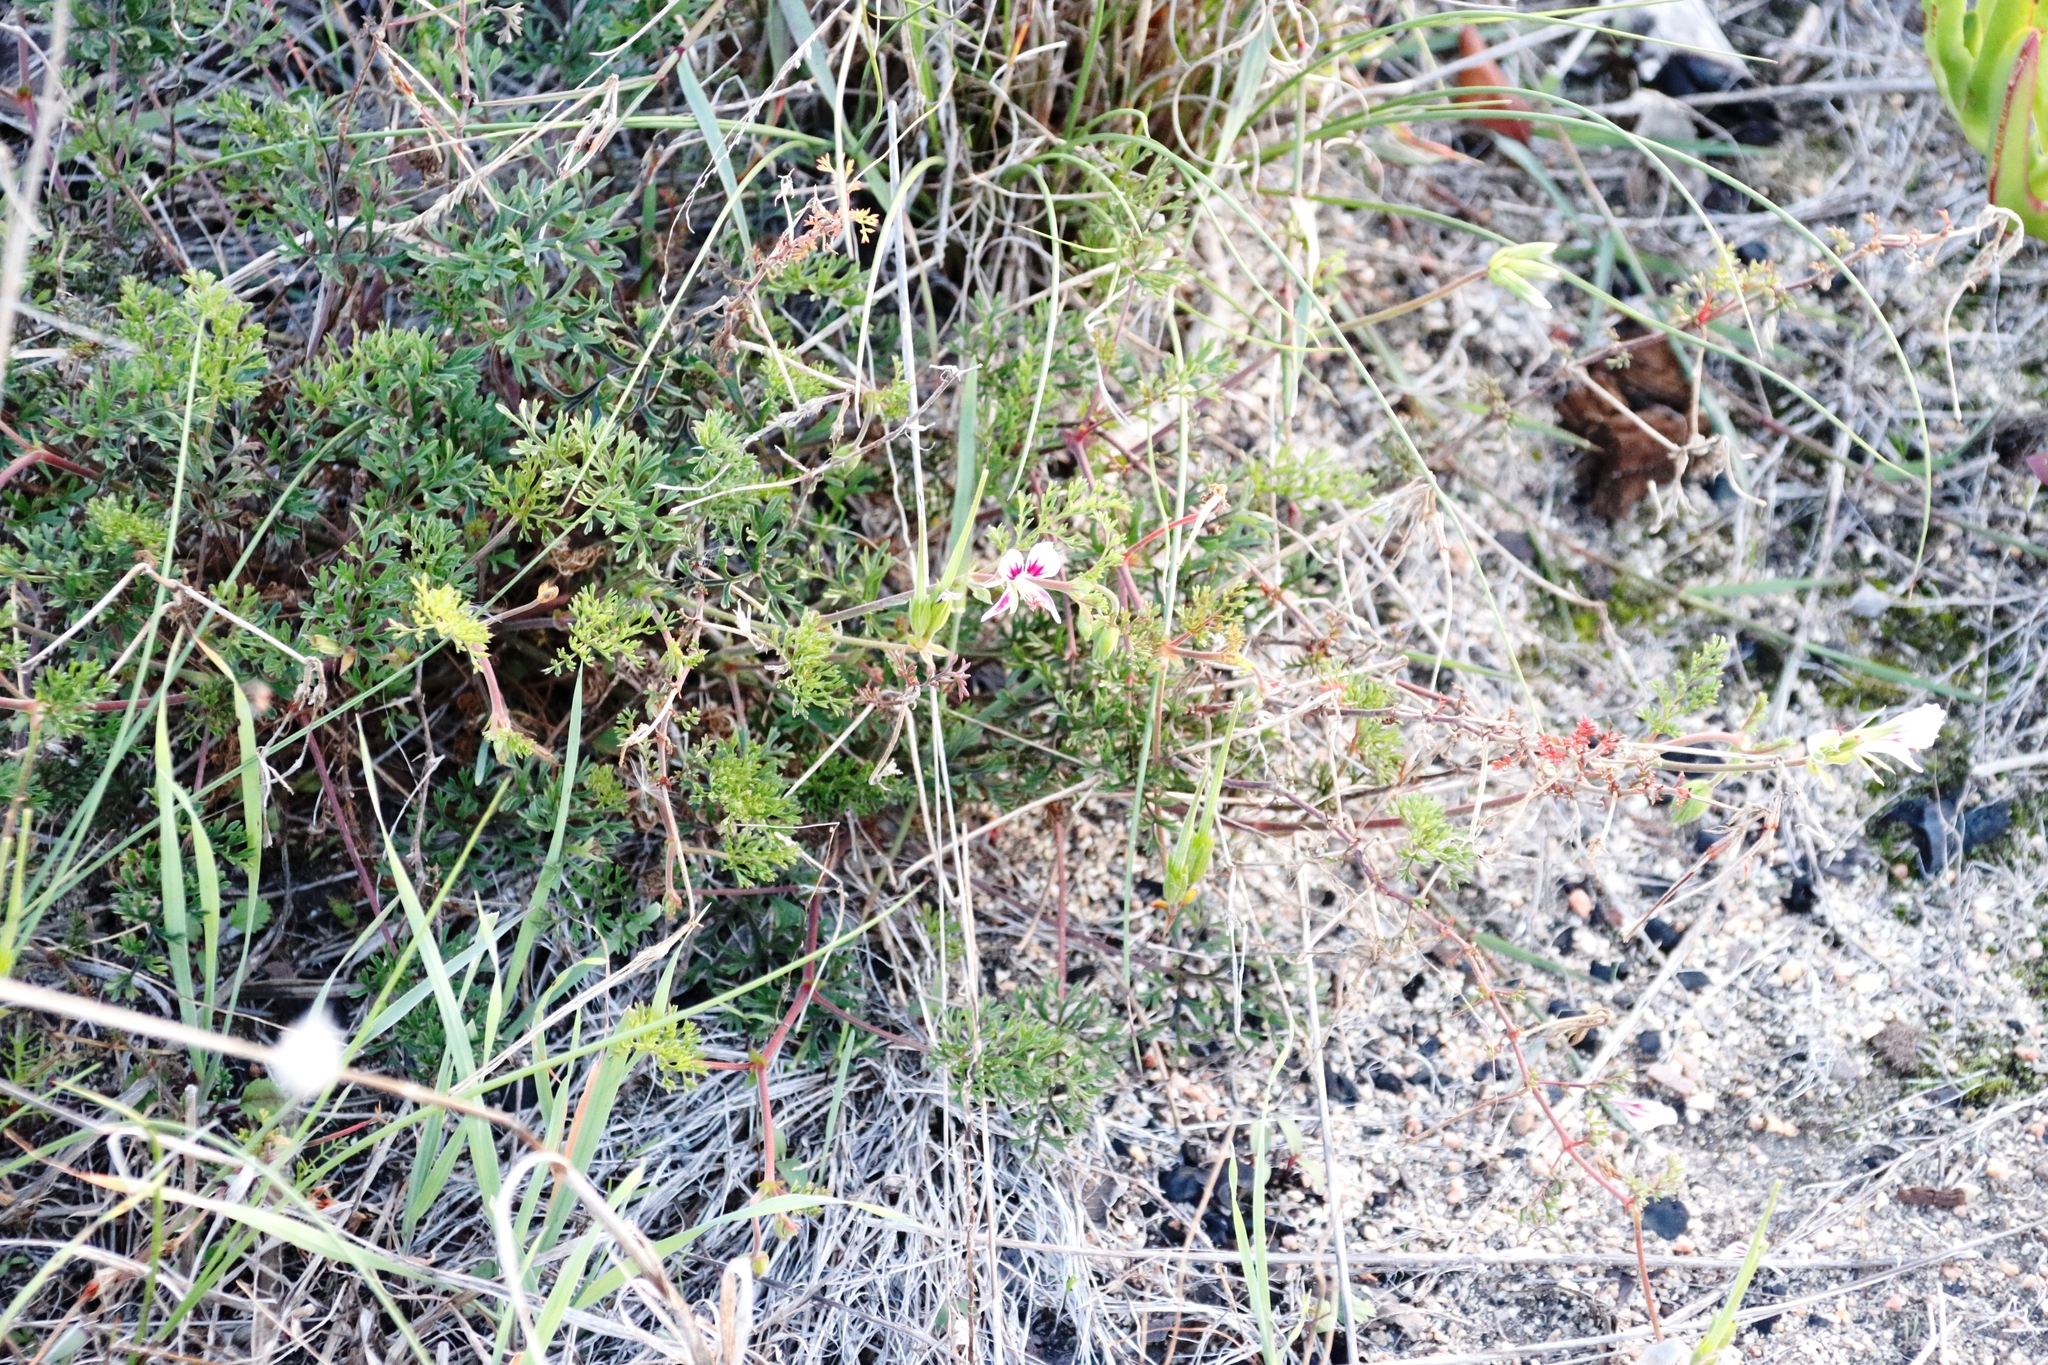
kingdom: Plantae
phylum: Tracheophyta
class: Magnoliopsida
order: Geraniales
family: Geraniaceae
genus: Pelargonium
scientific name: Pelargonium myrrhifolium
